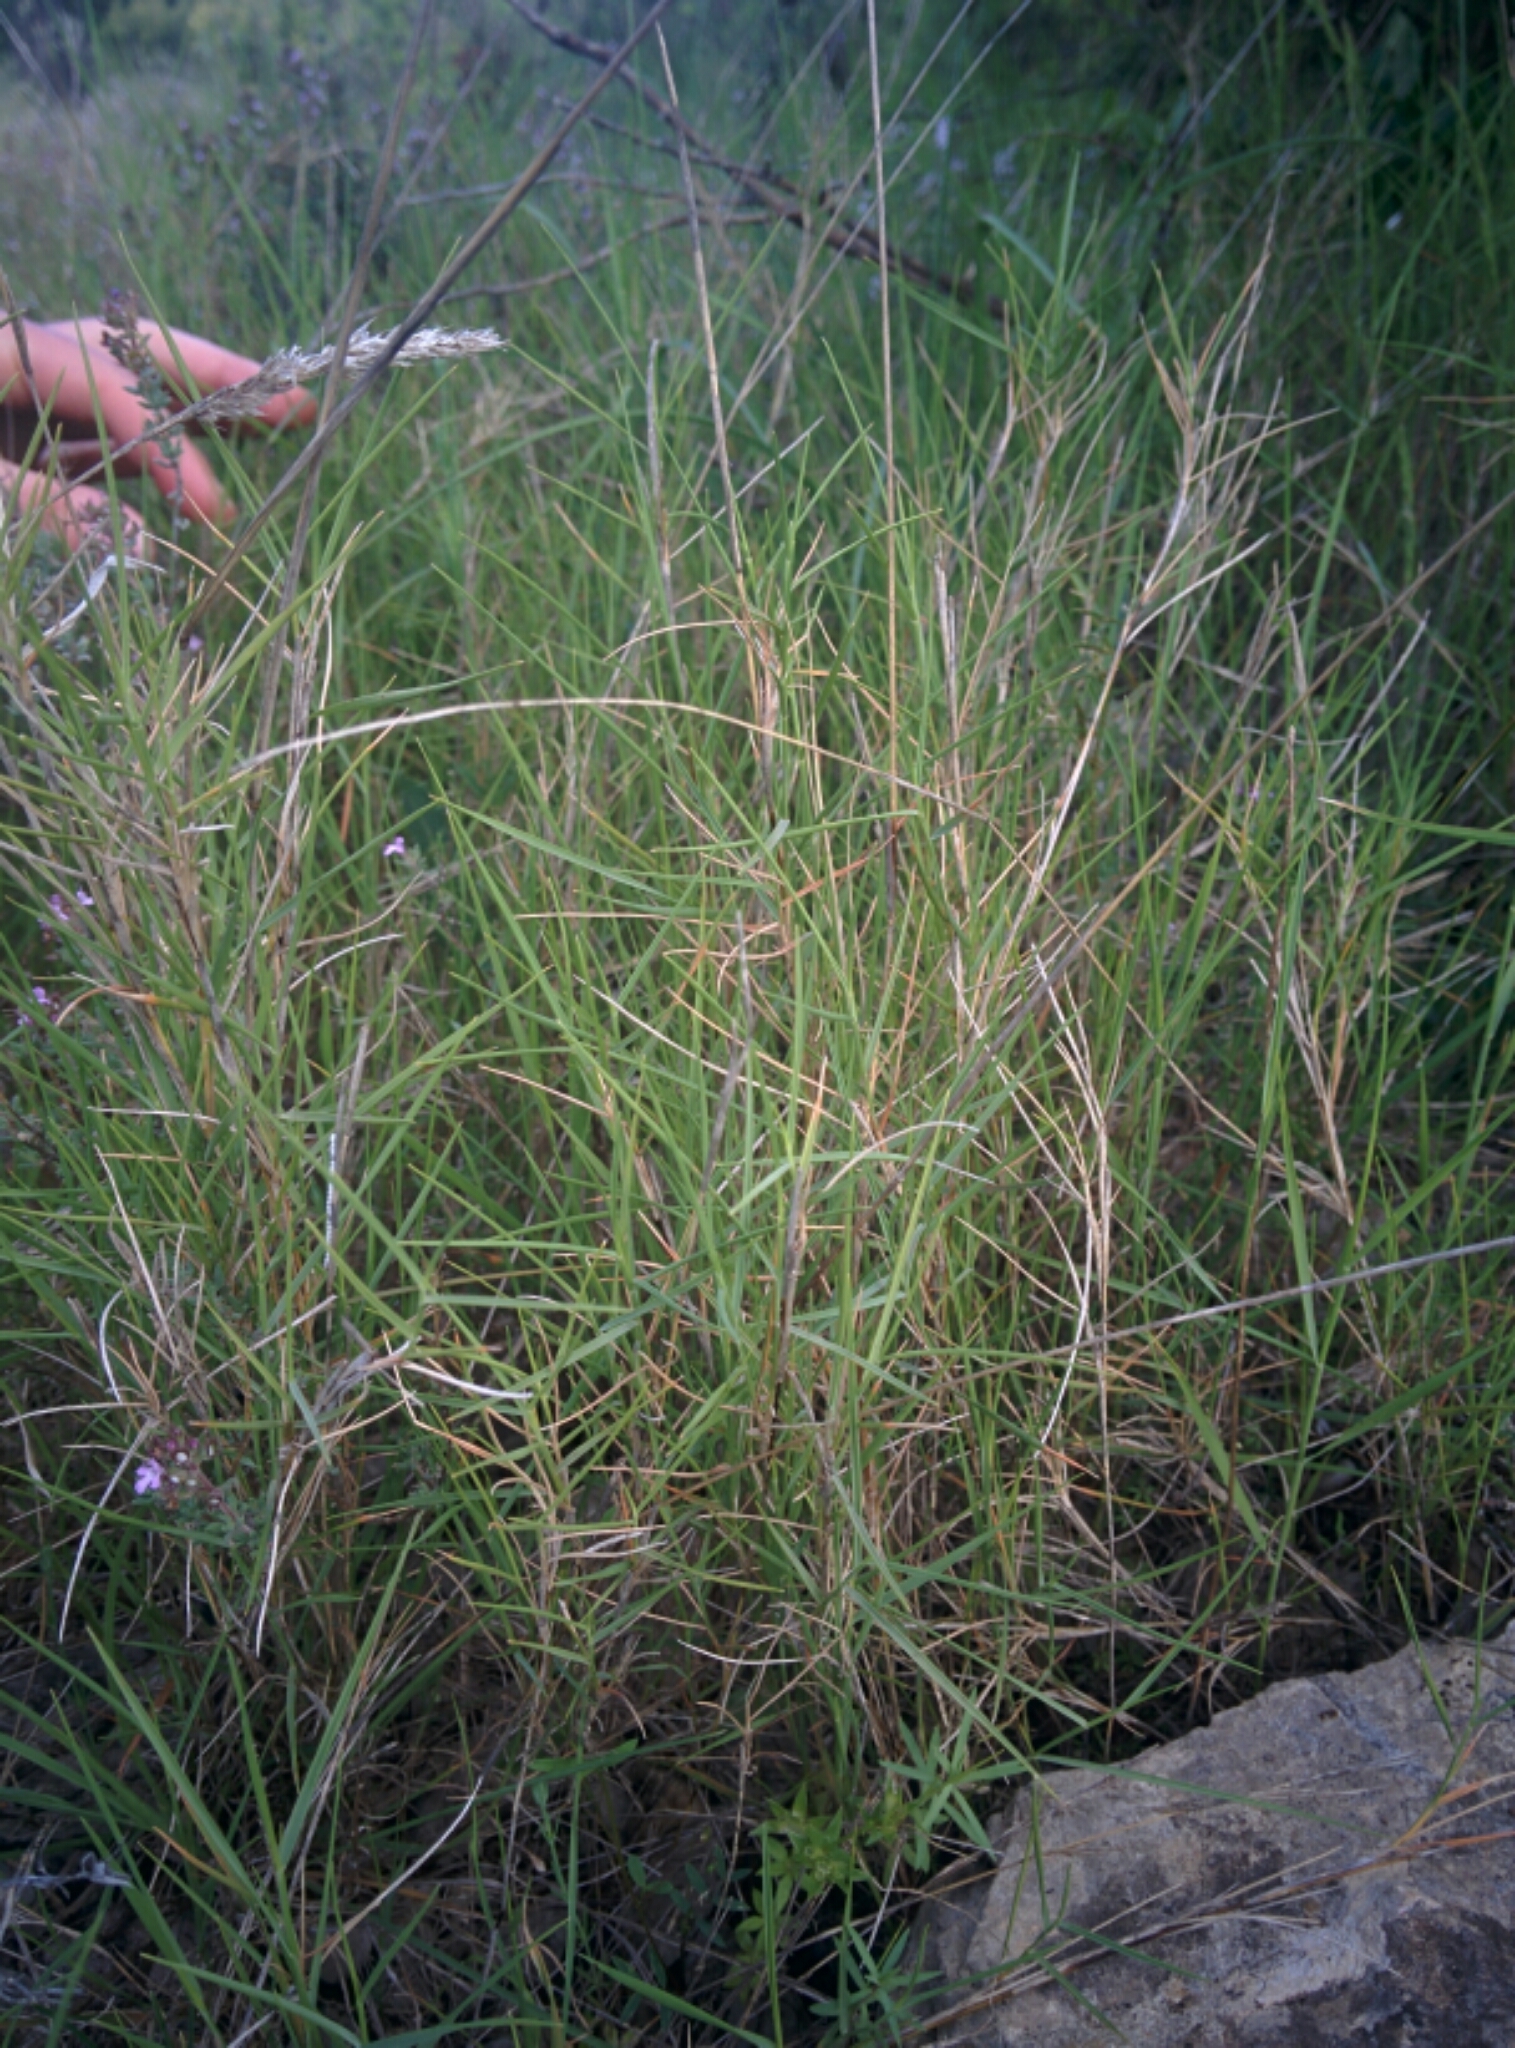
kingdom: Plantae
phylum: Tracheophyta
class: Liliopsida
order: Poales
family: Poaceae
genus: Brachypodium
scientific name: Brachypodium retusum
